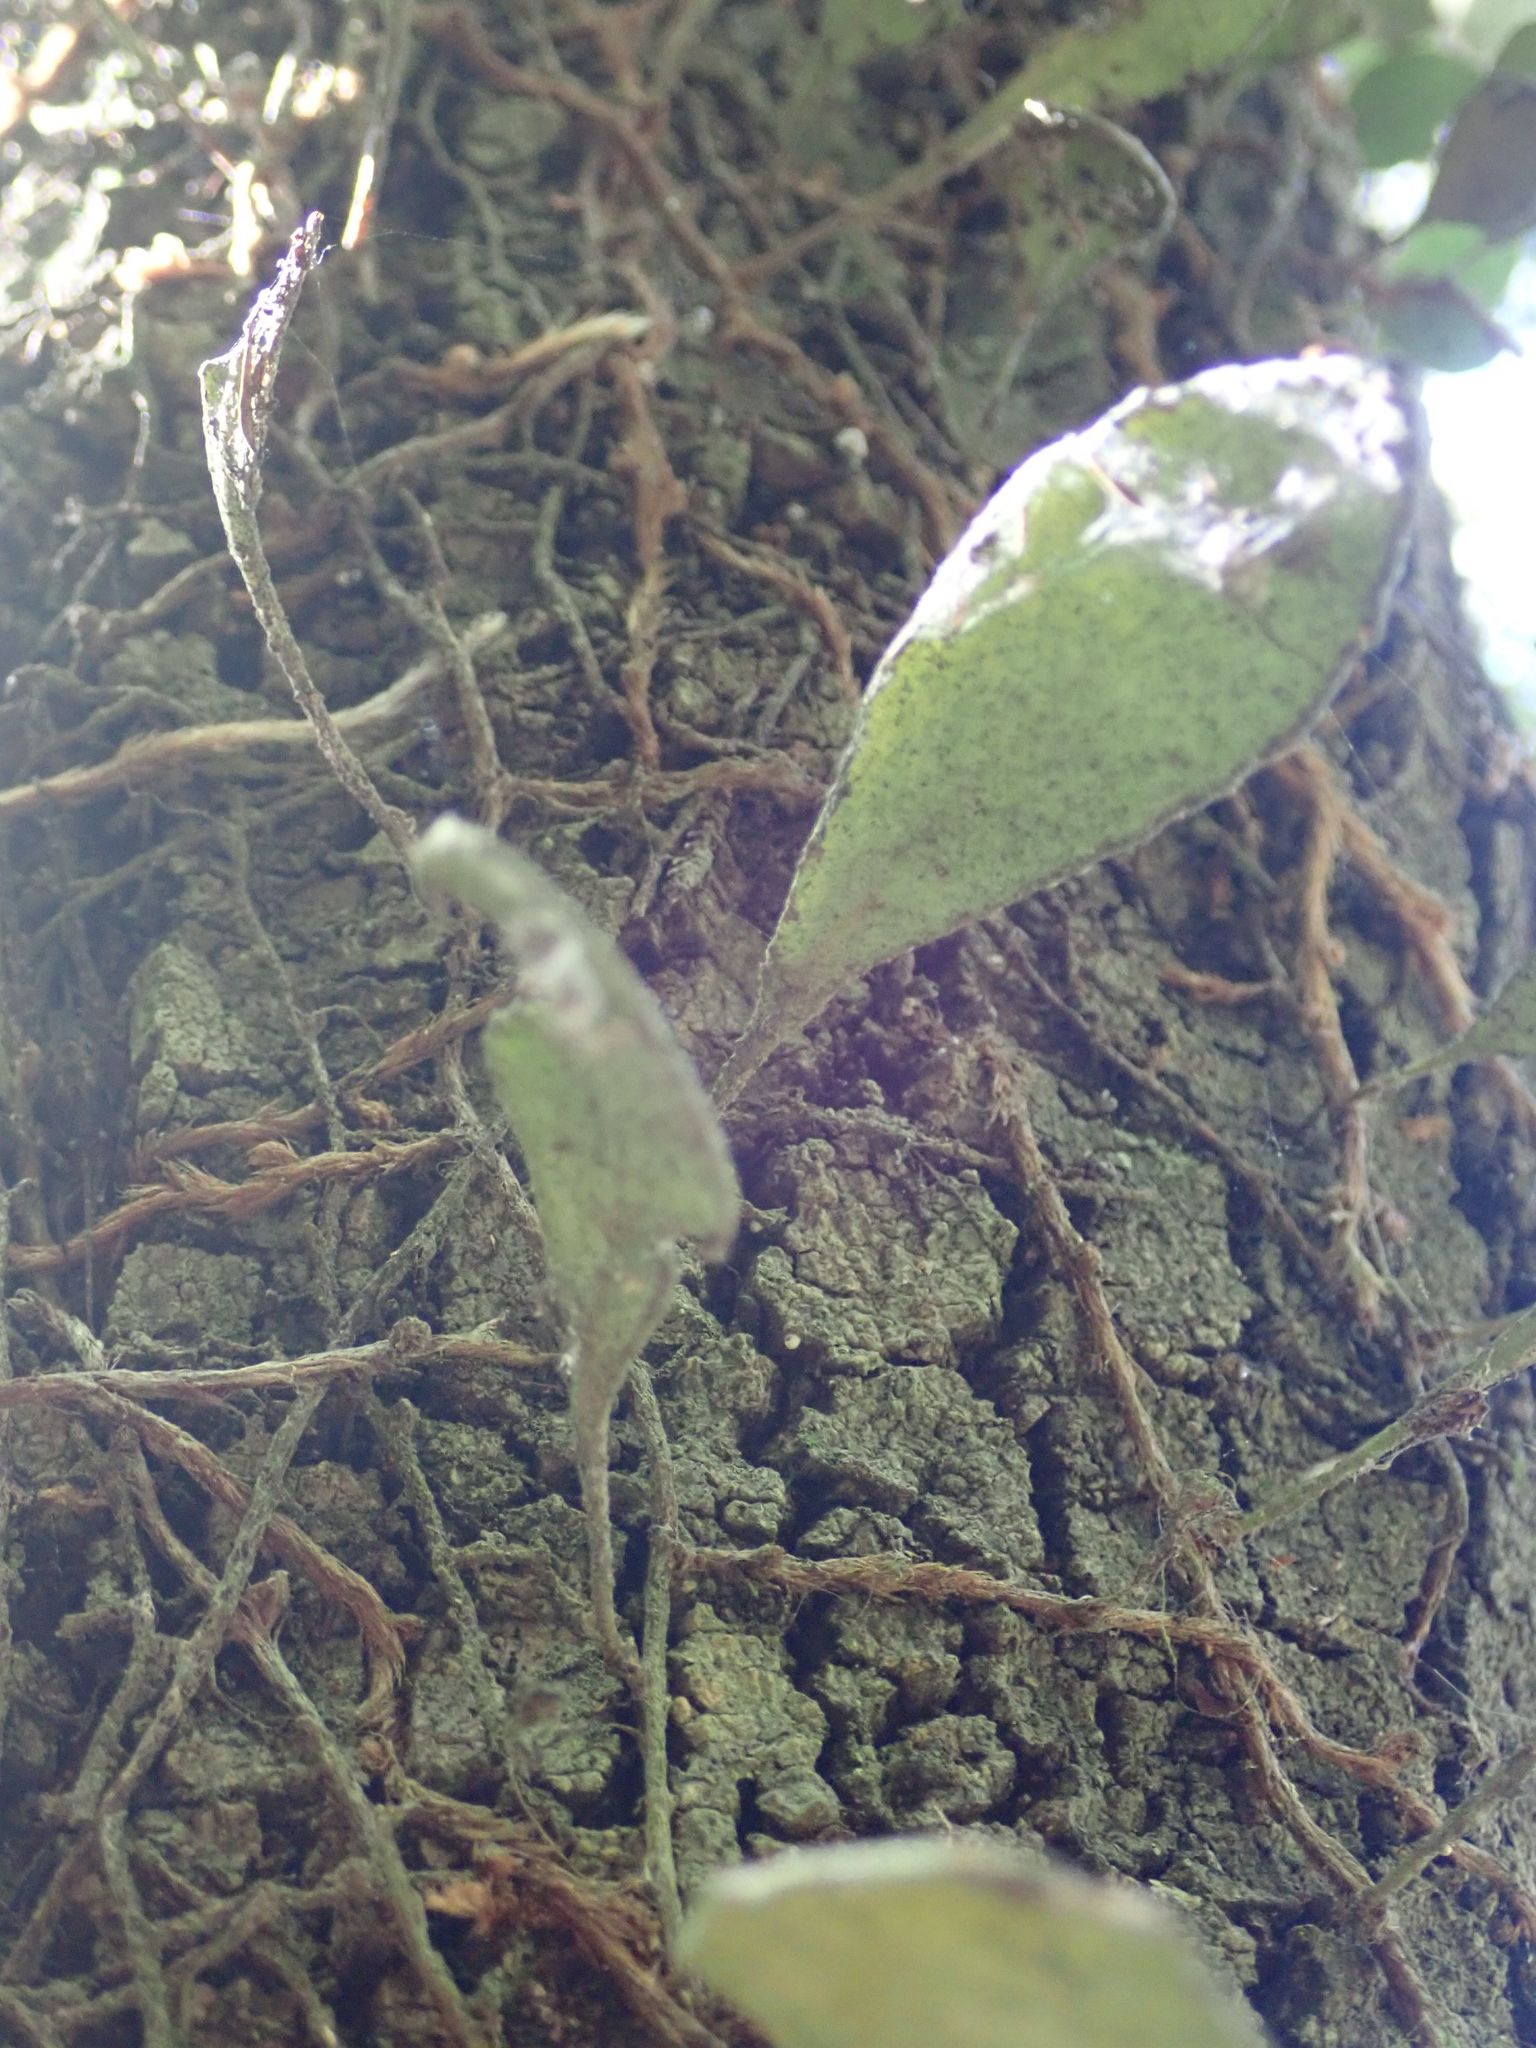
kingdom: Plantae
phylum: Tracheophyta
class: Polypodiopsida
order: Polypodiales
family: Polypodiaceae
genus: Pyrrosia
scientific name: Pyrrosia eleagnifolia
